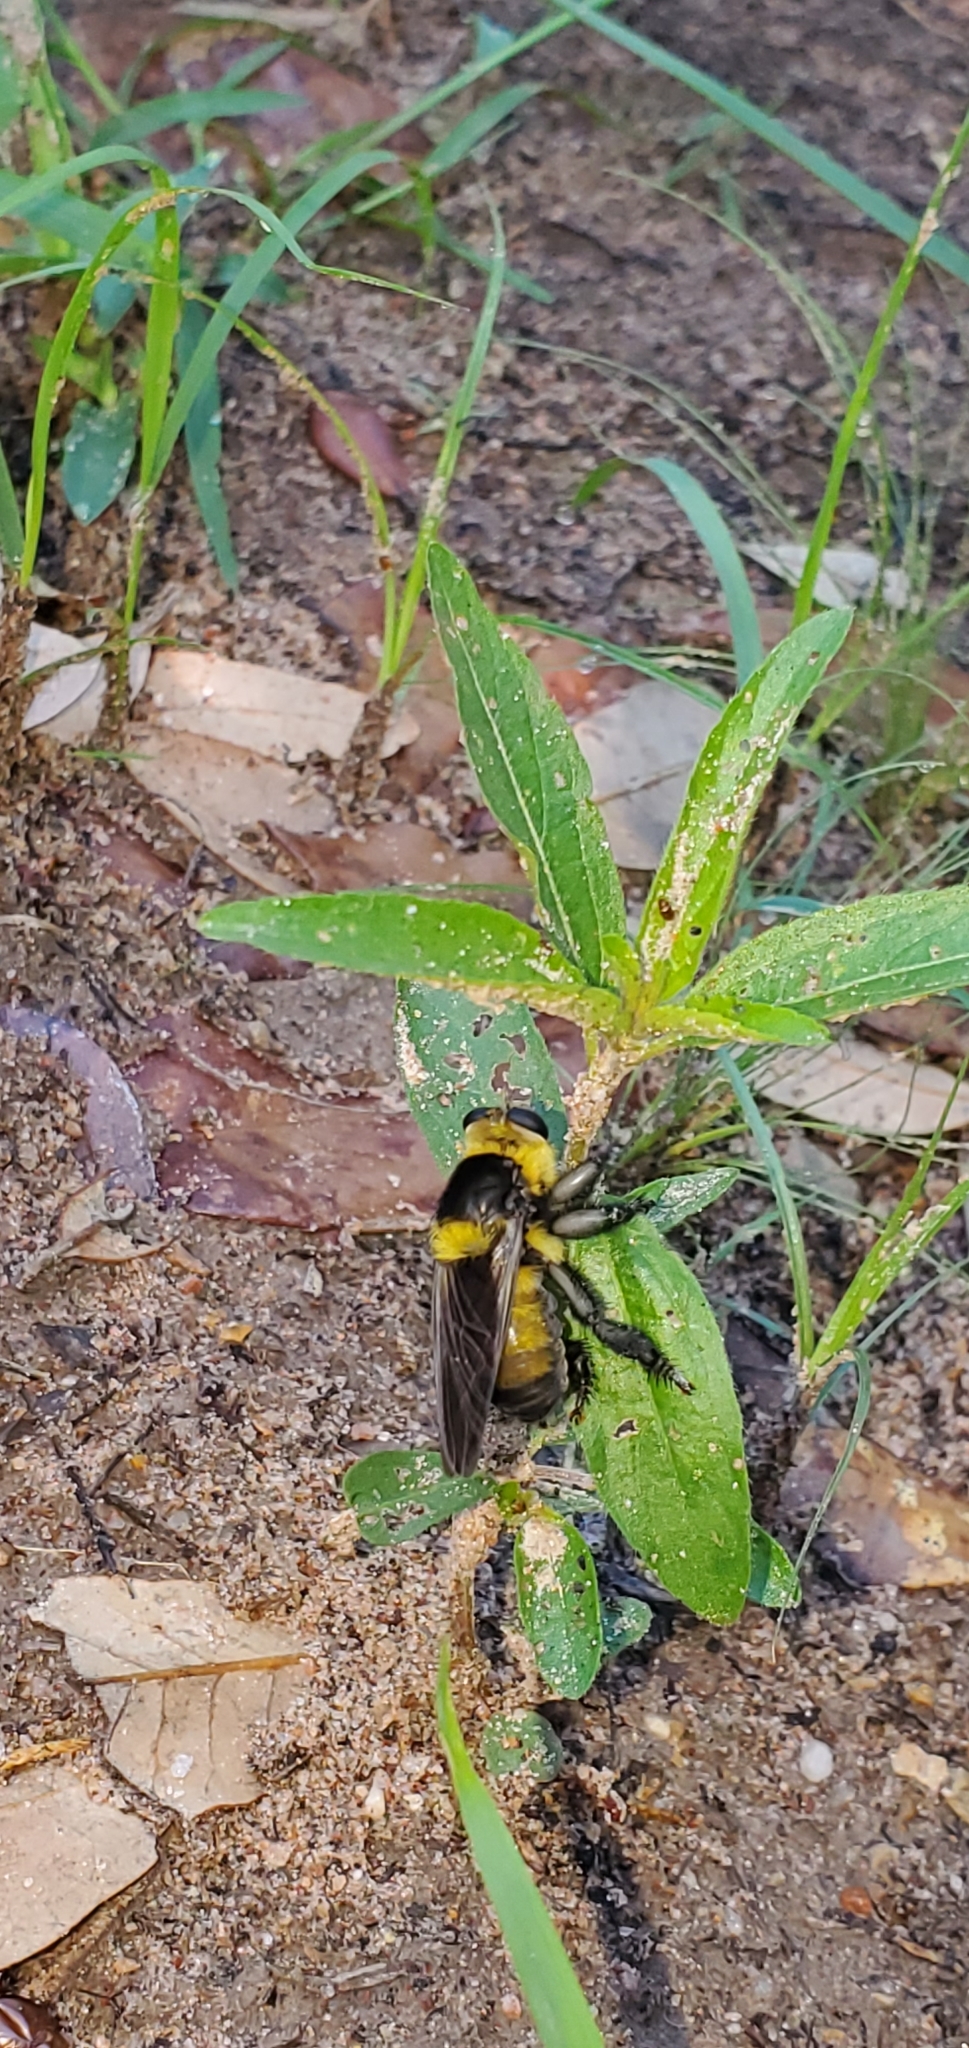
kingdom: Animalia
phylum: Arthropoda
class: Insecta
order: Diptera
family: Asilidae
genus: Mallophora
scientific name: Mallophora orcina
